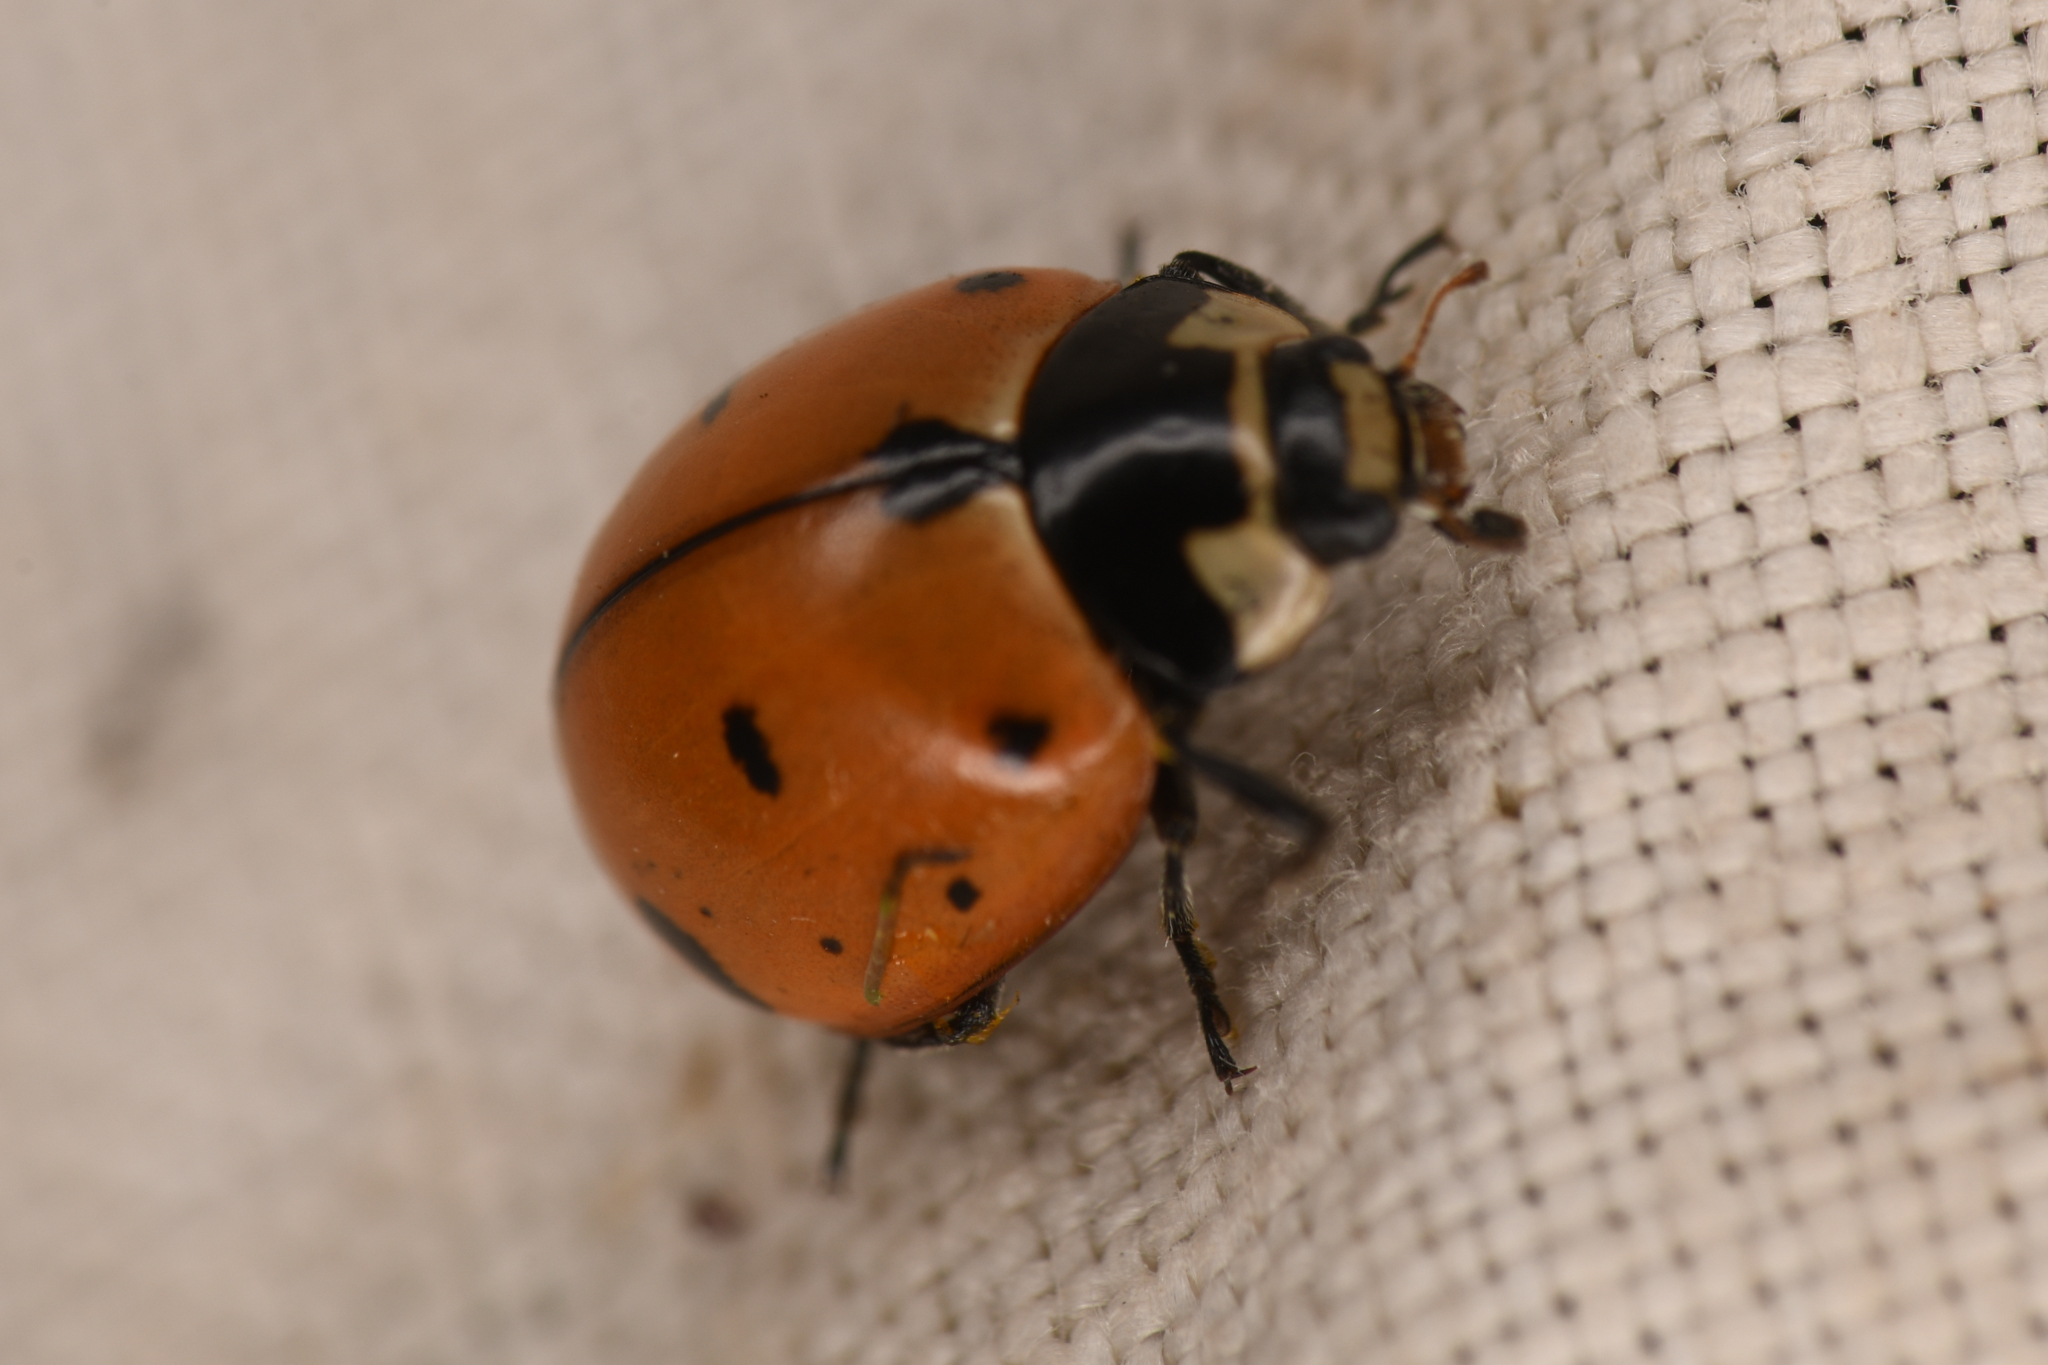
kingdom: Animalia
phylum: Arthropoda
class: Insecta
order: Coleoptera
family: Coccinellidae
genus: Coccinella
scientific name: Coccinella novemnotata
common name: Nine-spotted lady beetle
